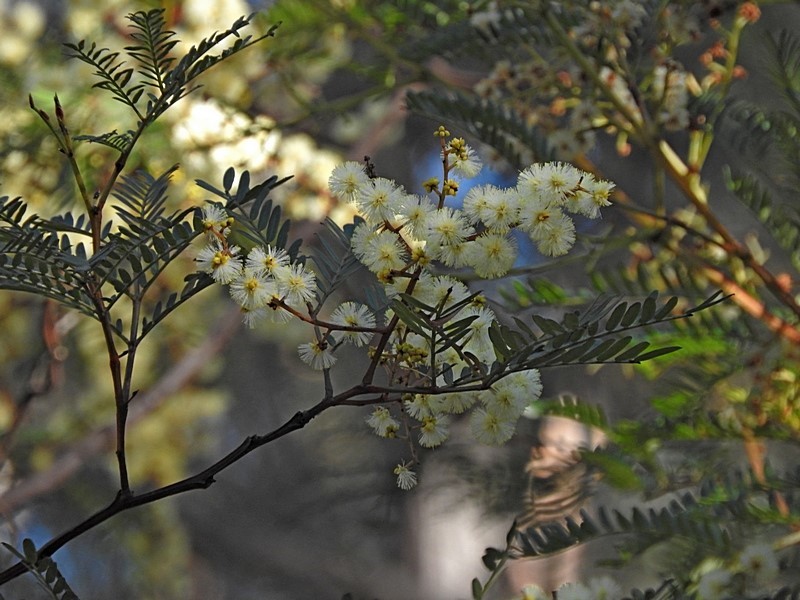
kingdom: Plantae
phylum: Tracheophyta
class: Magnoliopsida
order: Fabales
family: Fabaceae
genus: Acacia
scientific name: Acacia terminalis
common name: Cedar wattle
